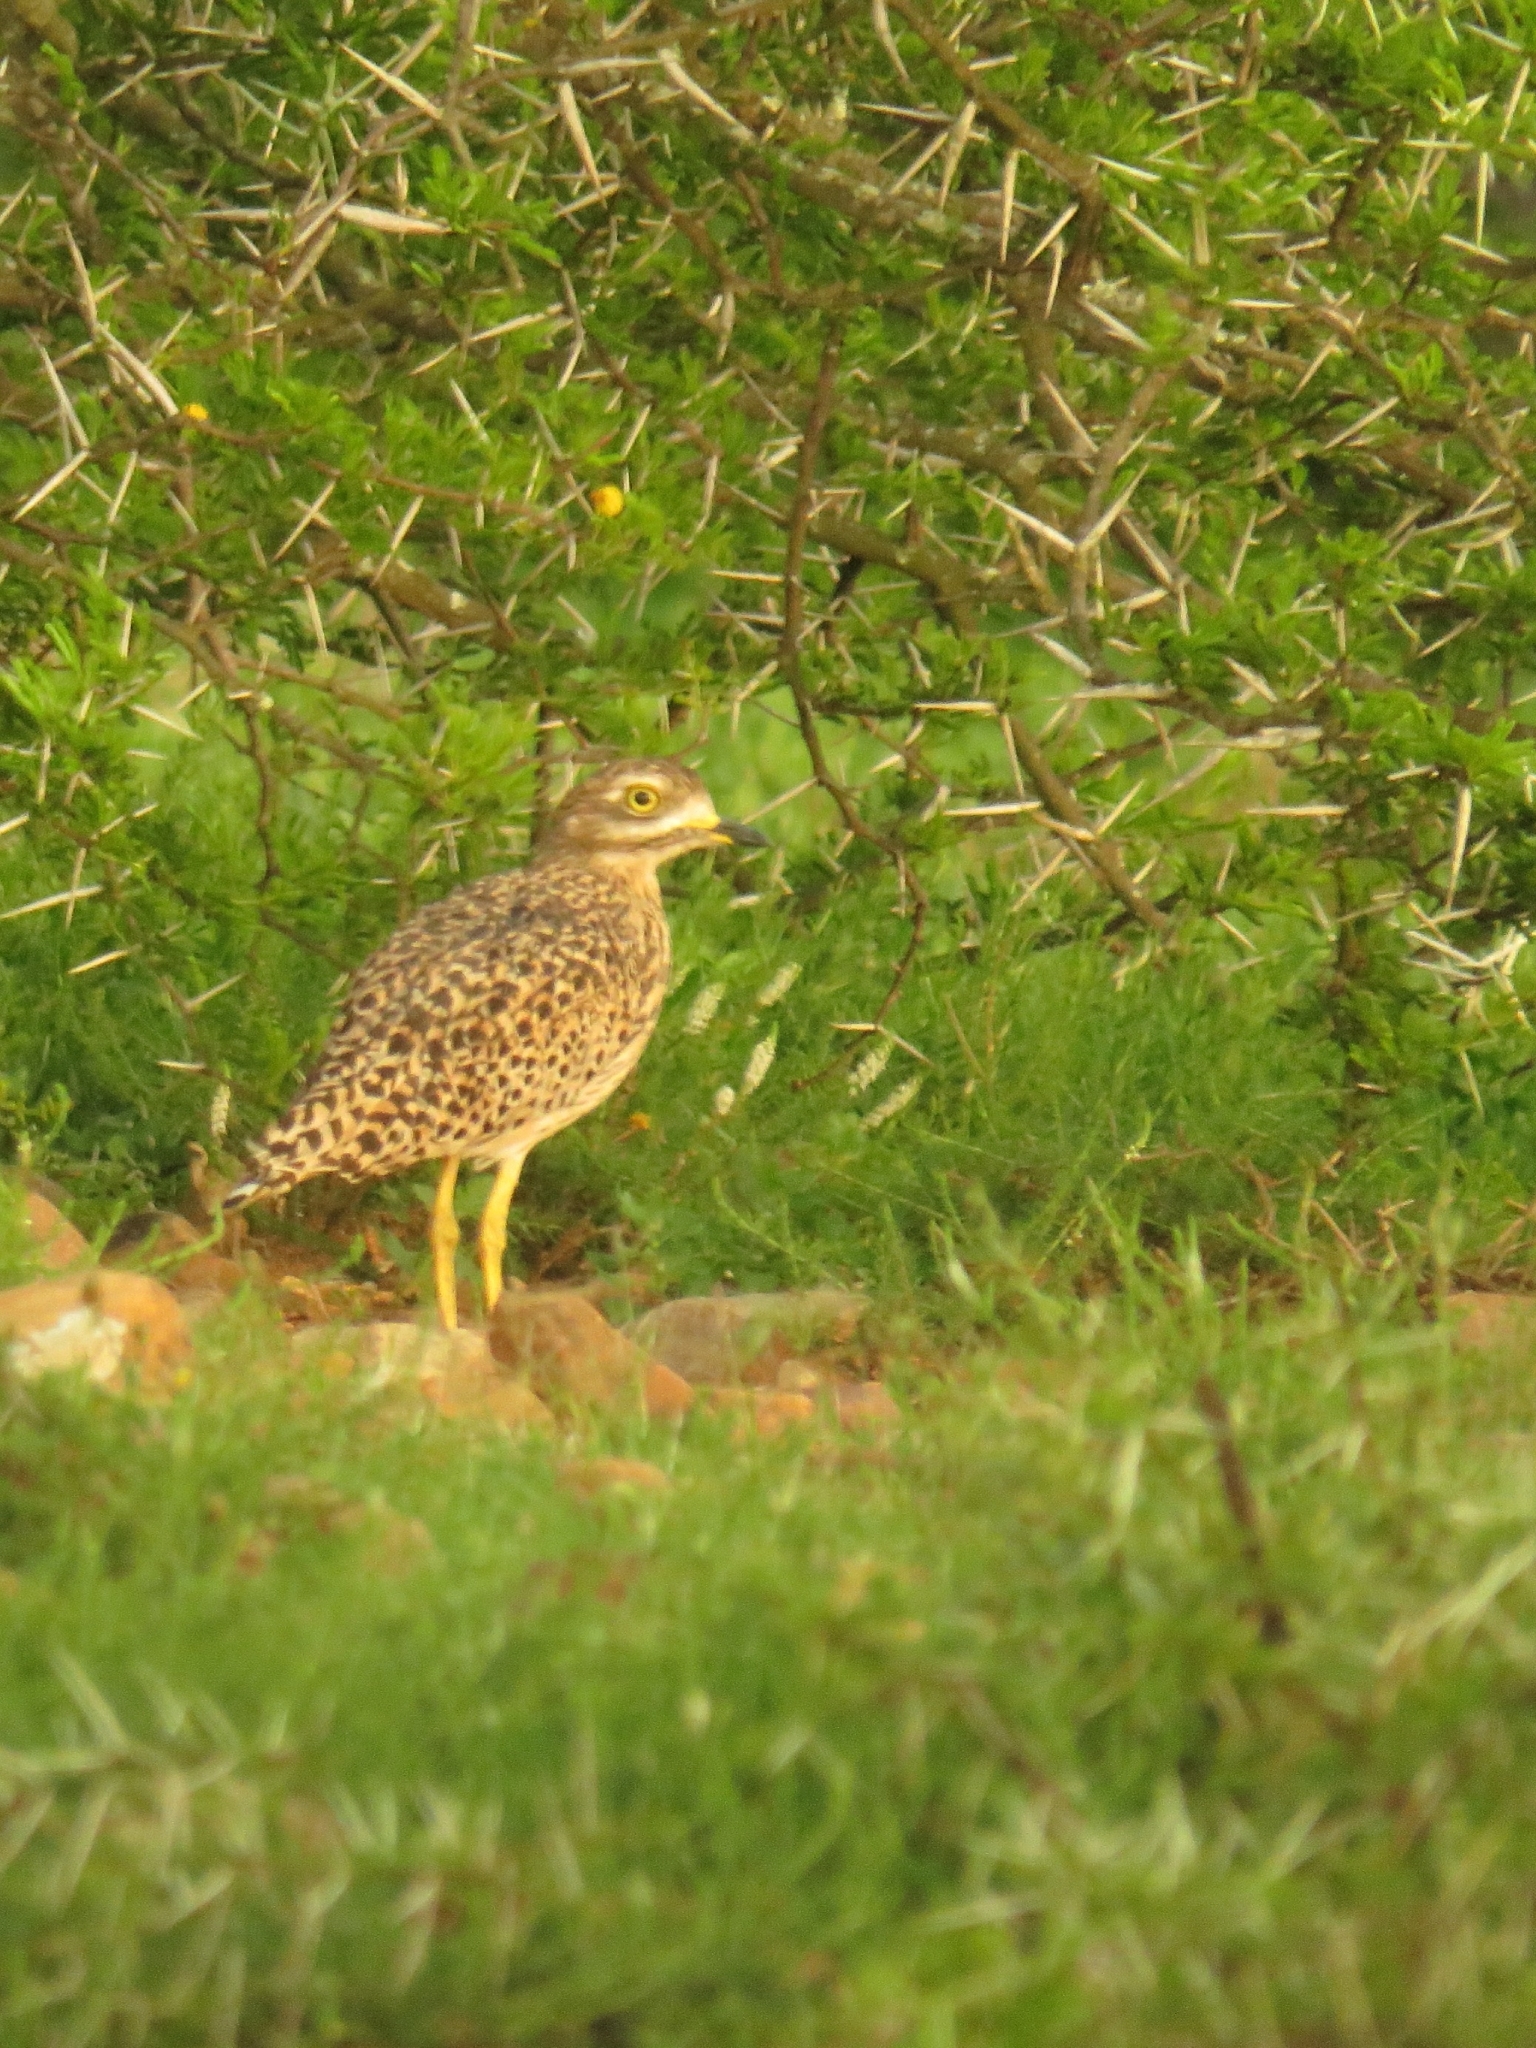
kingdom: Animalia
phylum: Chordata
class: Aves
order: Charadriiformes
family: Burhinidae
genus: Burhinus
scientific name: Burhinus capensis
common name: Spotted thick-knee
